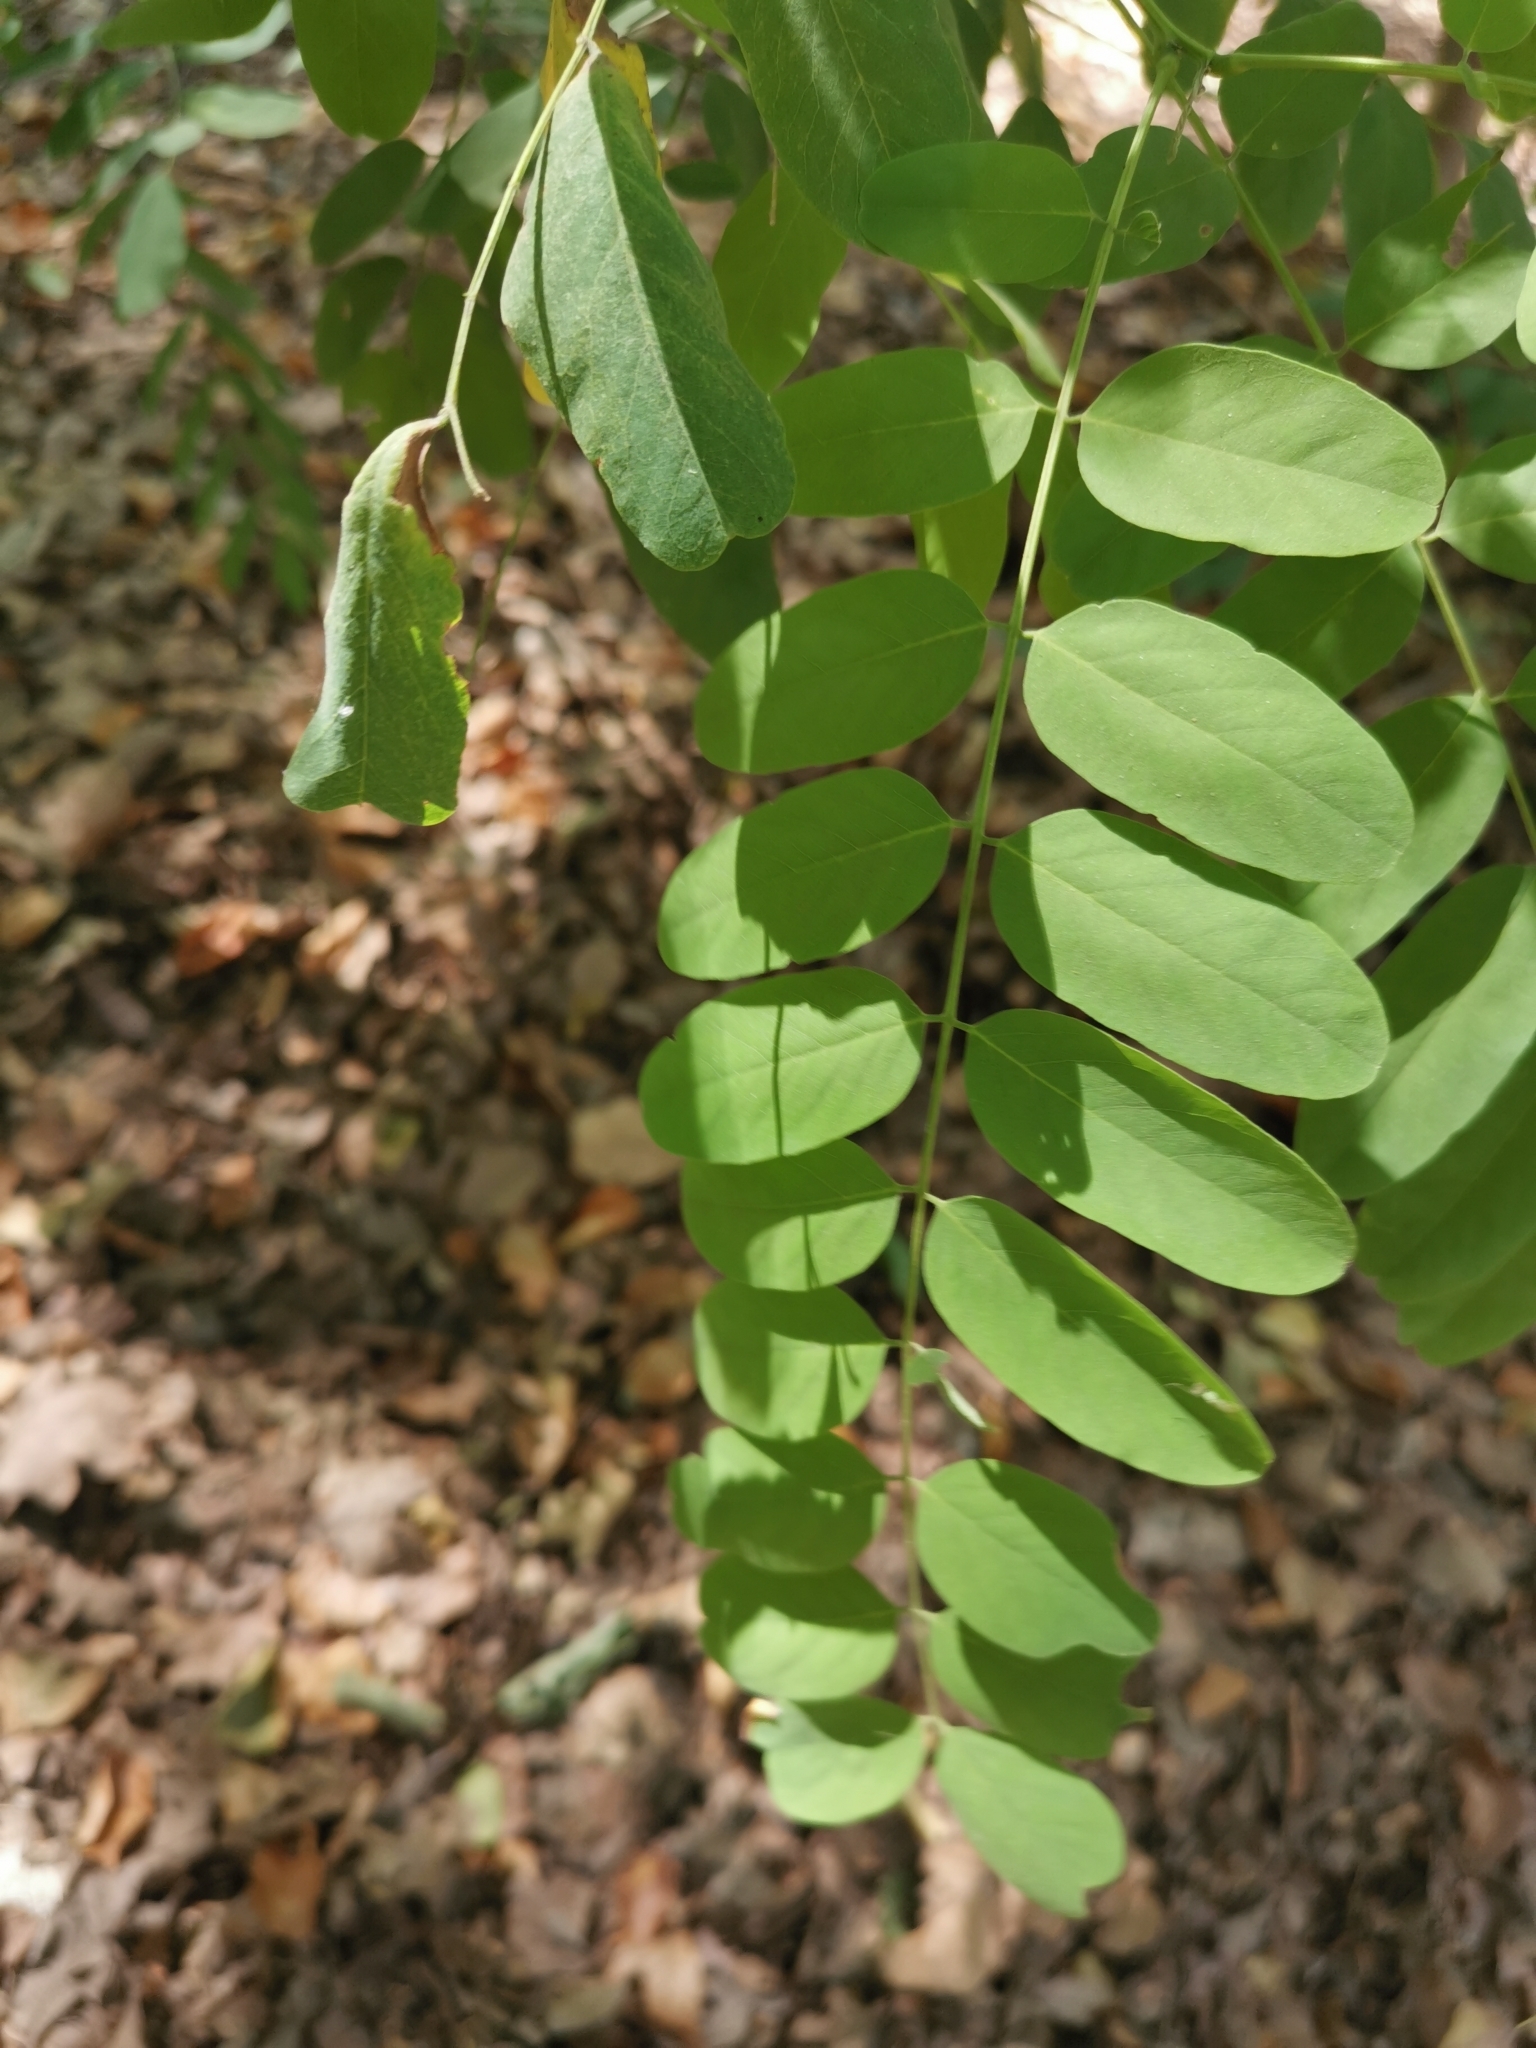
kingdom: Plantae
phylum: Tracheophyta
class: Magnoliopsida
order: Fabales
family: Fabaceae
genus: Robinia
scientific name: Robinia pseudoacacia
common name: Black locust
